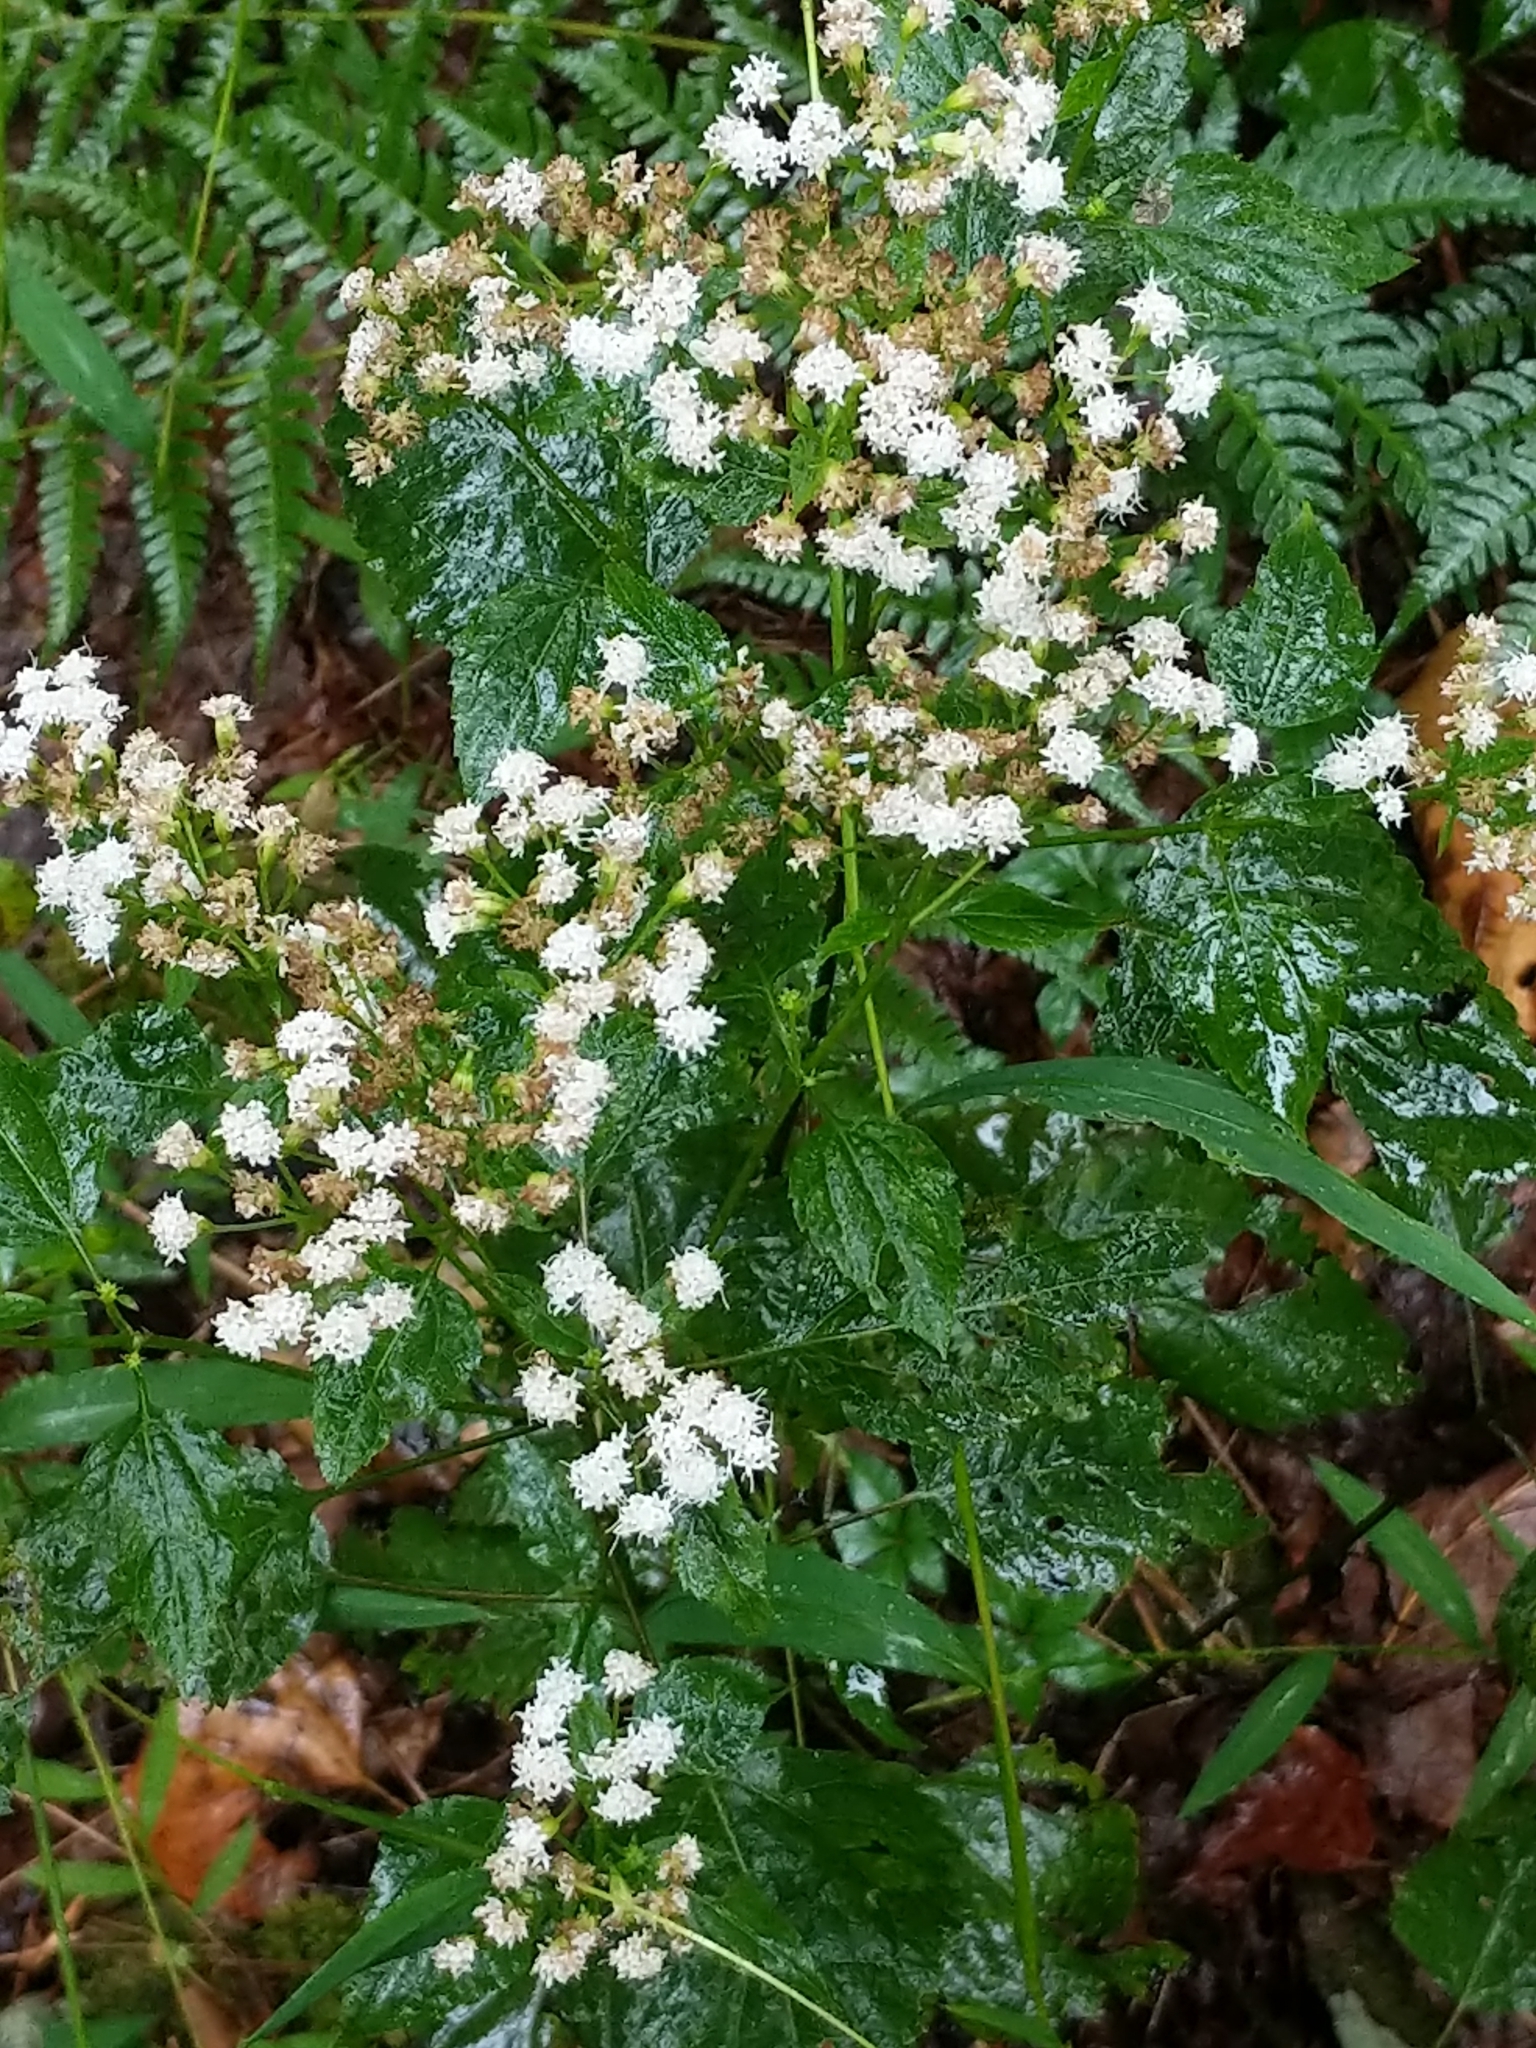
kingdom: Plantae
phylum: Tracheophyta
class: Magnoliopsida
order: Asterales
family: Asteraceae
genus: Ageratina
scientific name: Ageratina altissima
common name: White snakeroot
